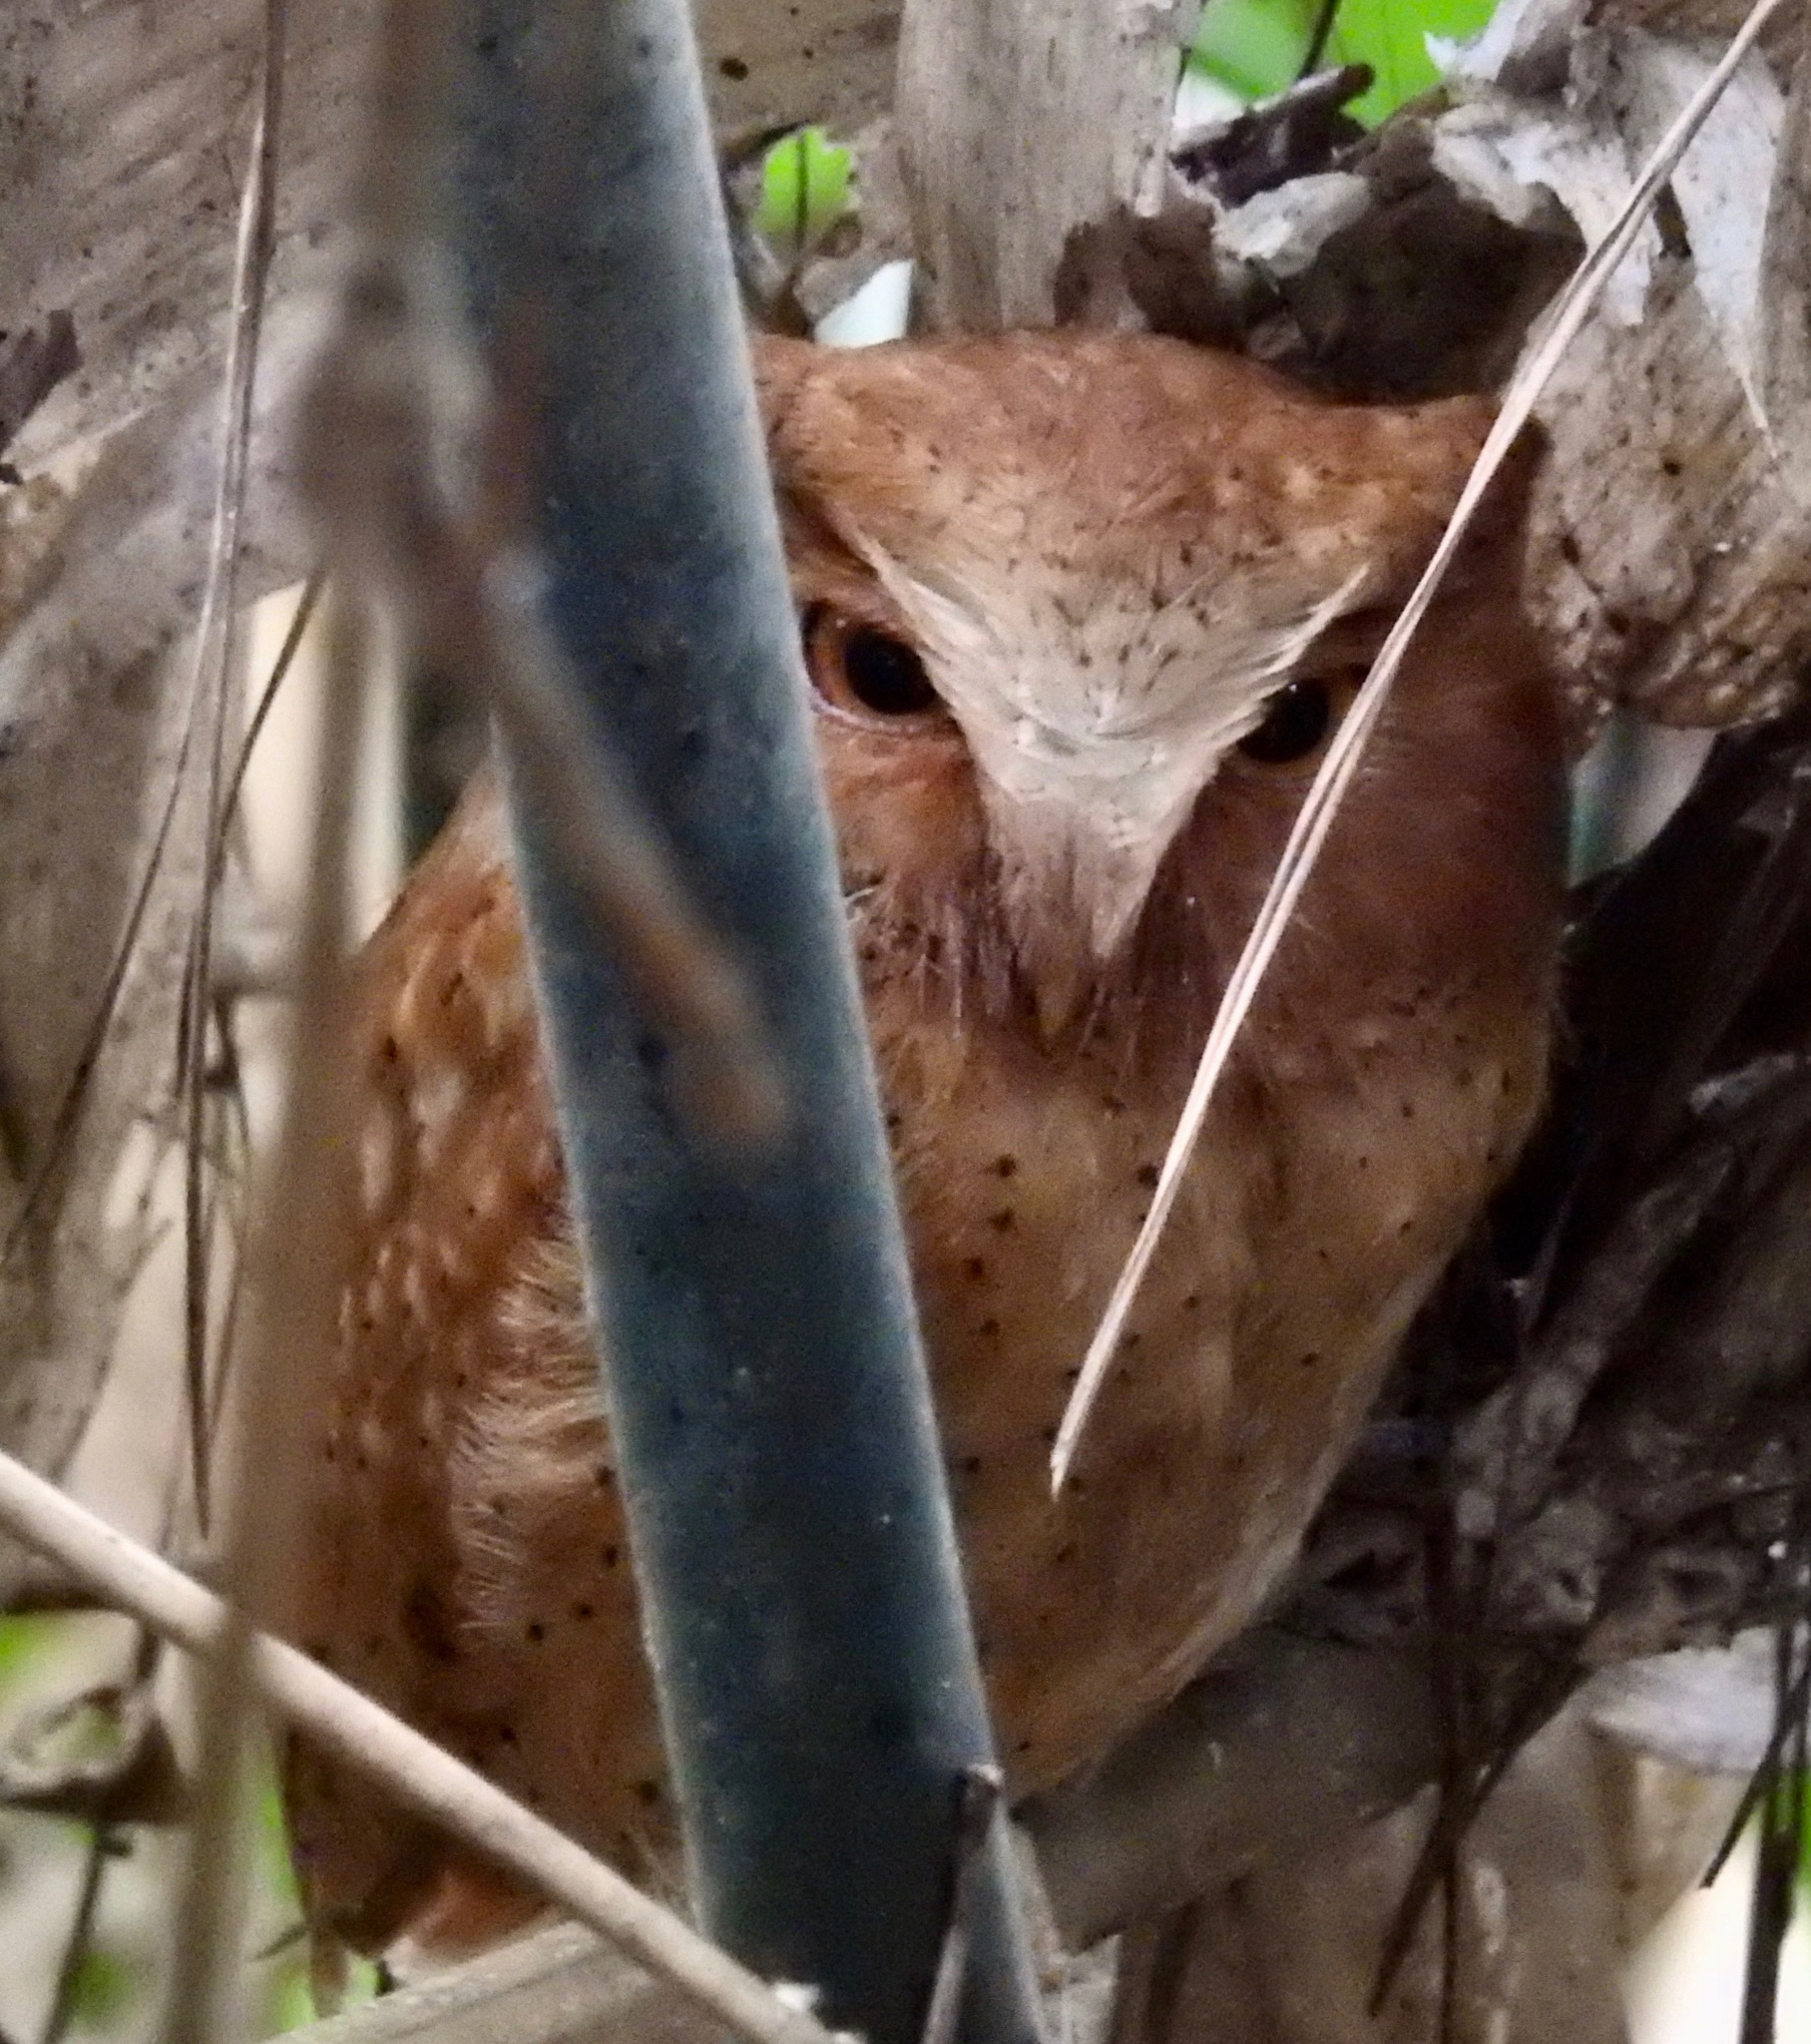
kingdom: Animalia
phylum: Chordata
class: Aves
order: Strigiformes
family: Strigidae
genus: Otus
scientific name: Otus thilohoffmanni
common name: Serendib scops owl
